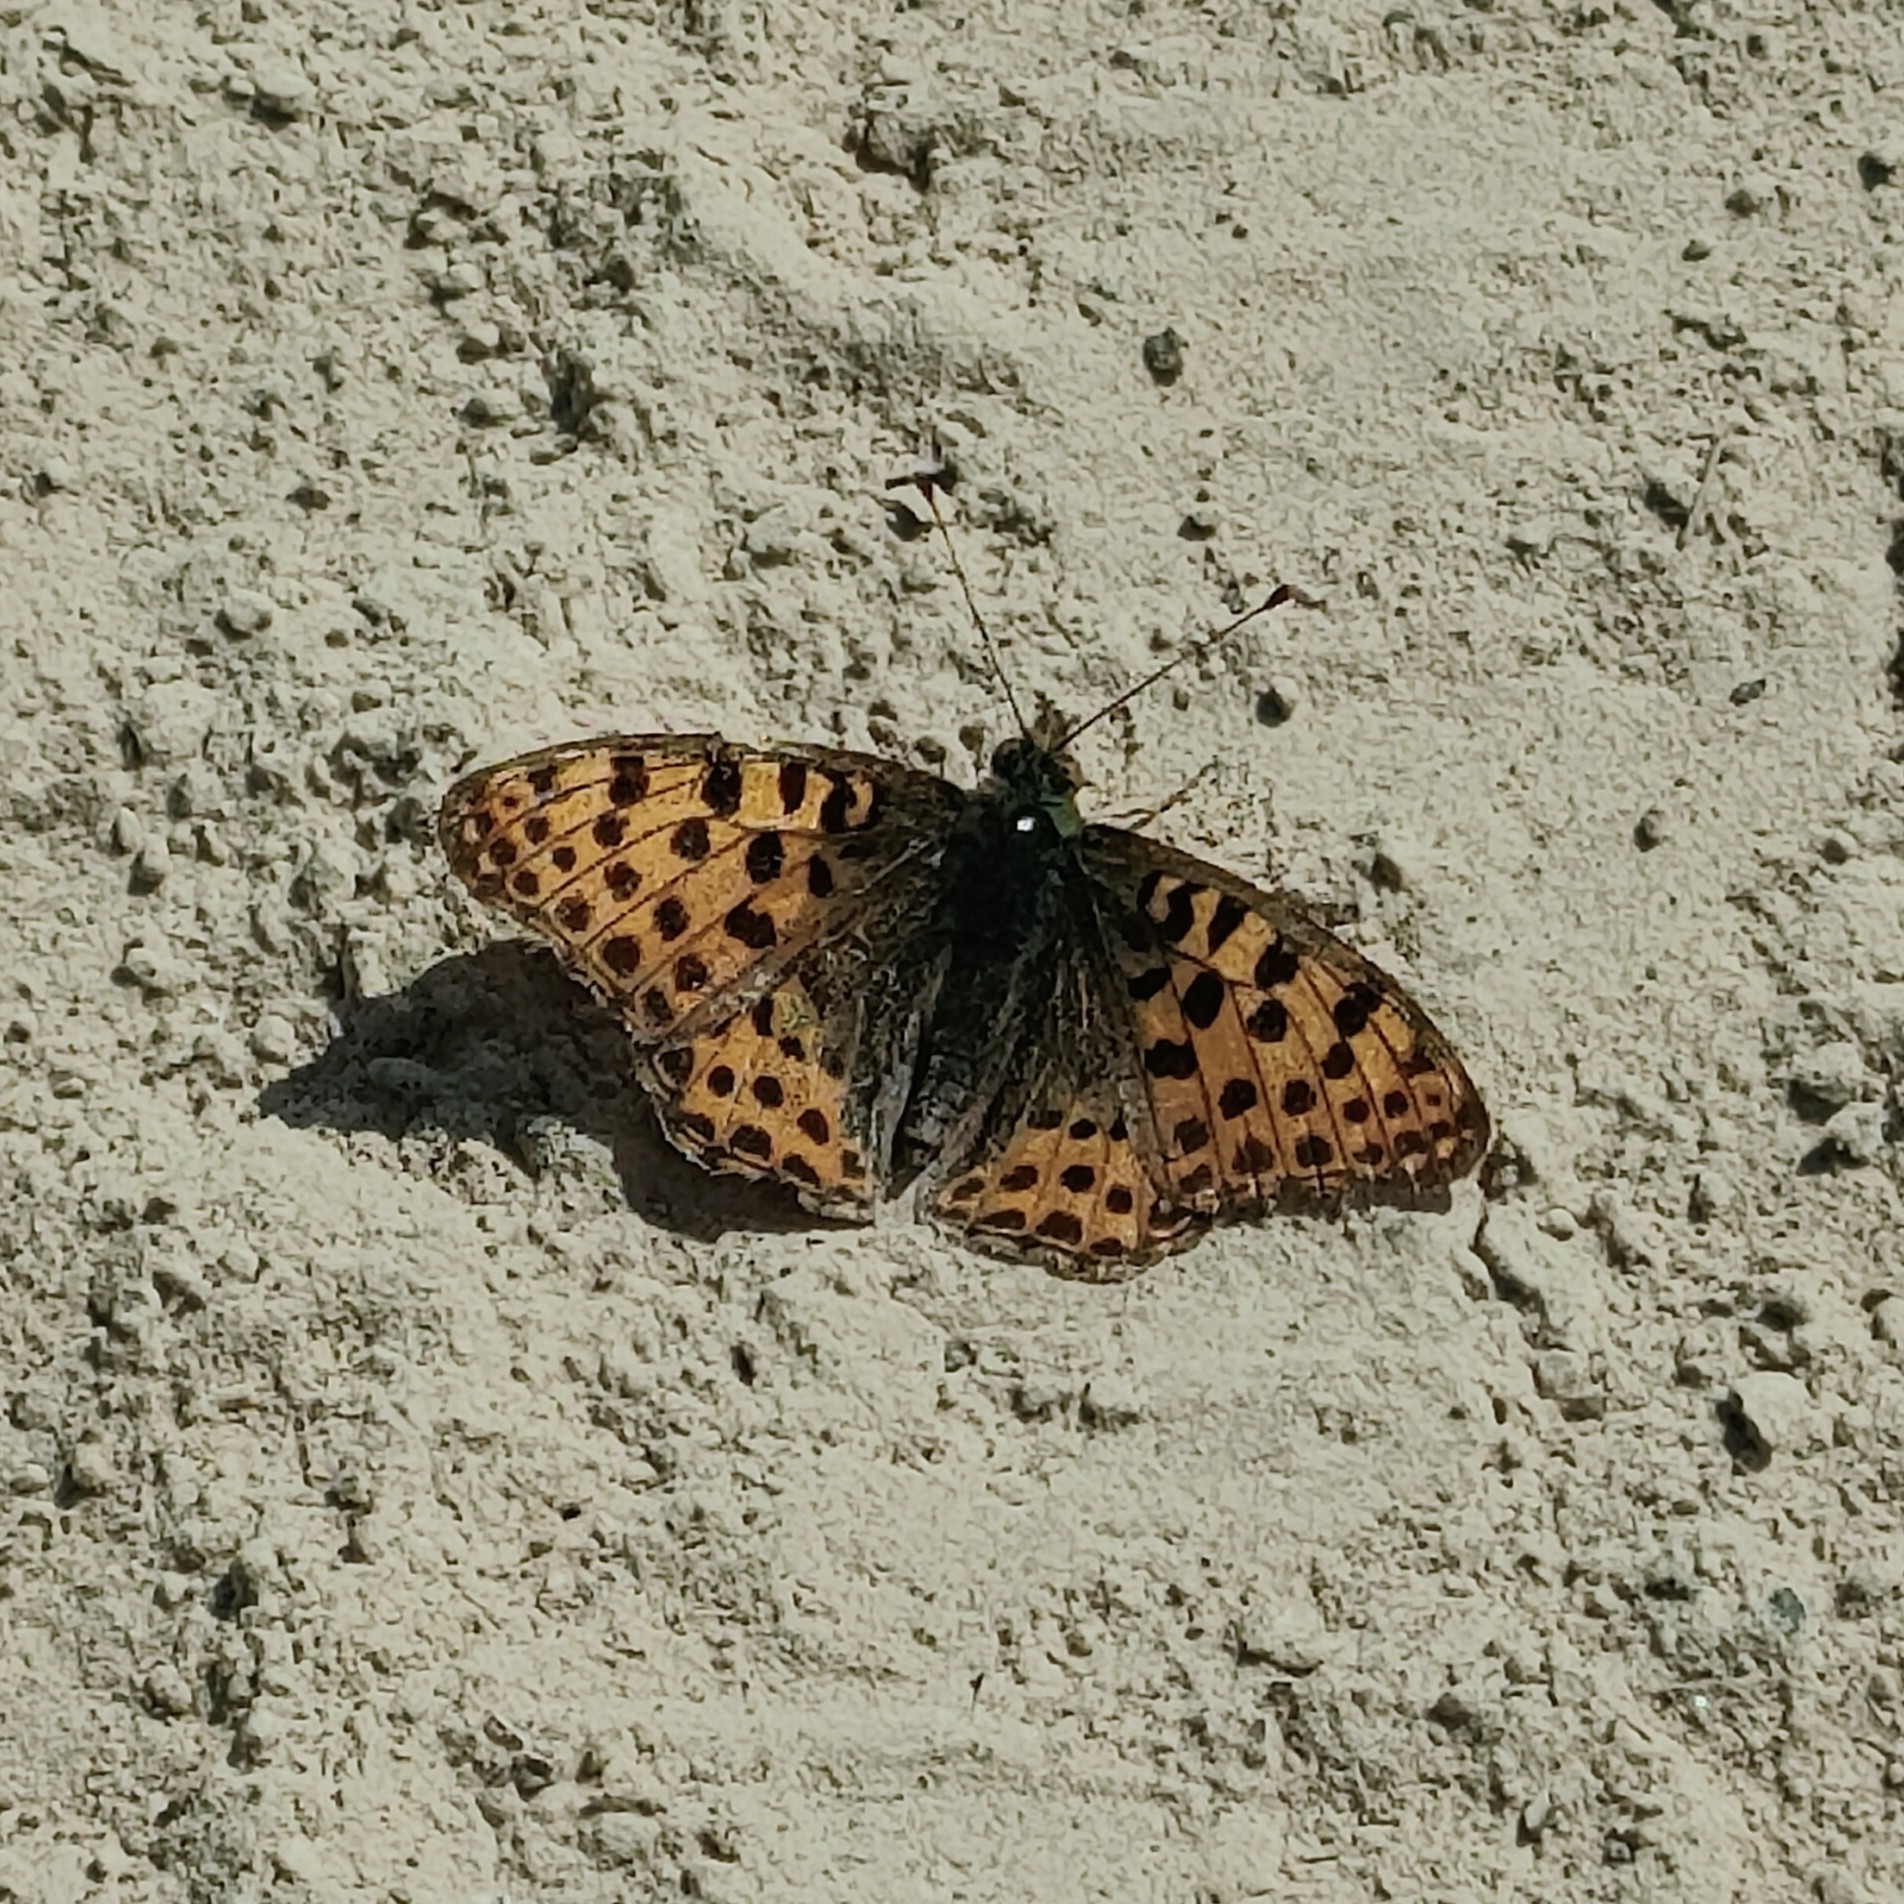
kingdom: Animalia
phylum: Arthropoda
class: Insecta
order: Lepidoptera
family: Nymphalidae
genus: Issoria
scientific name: Issoria lathonia
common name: Queen of spain fritillary
